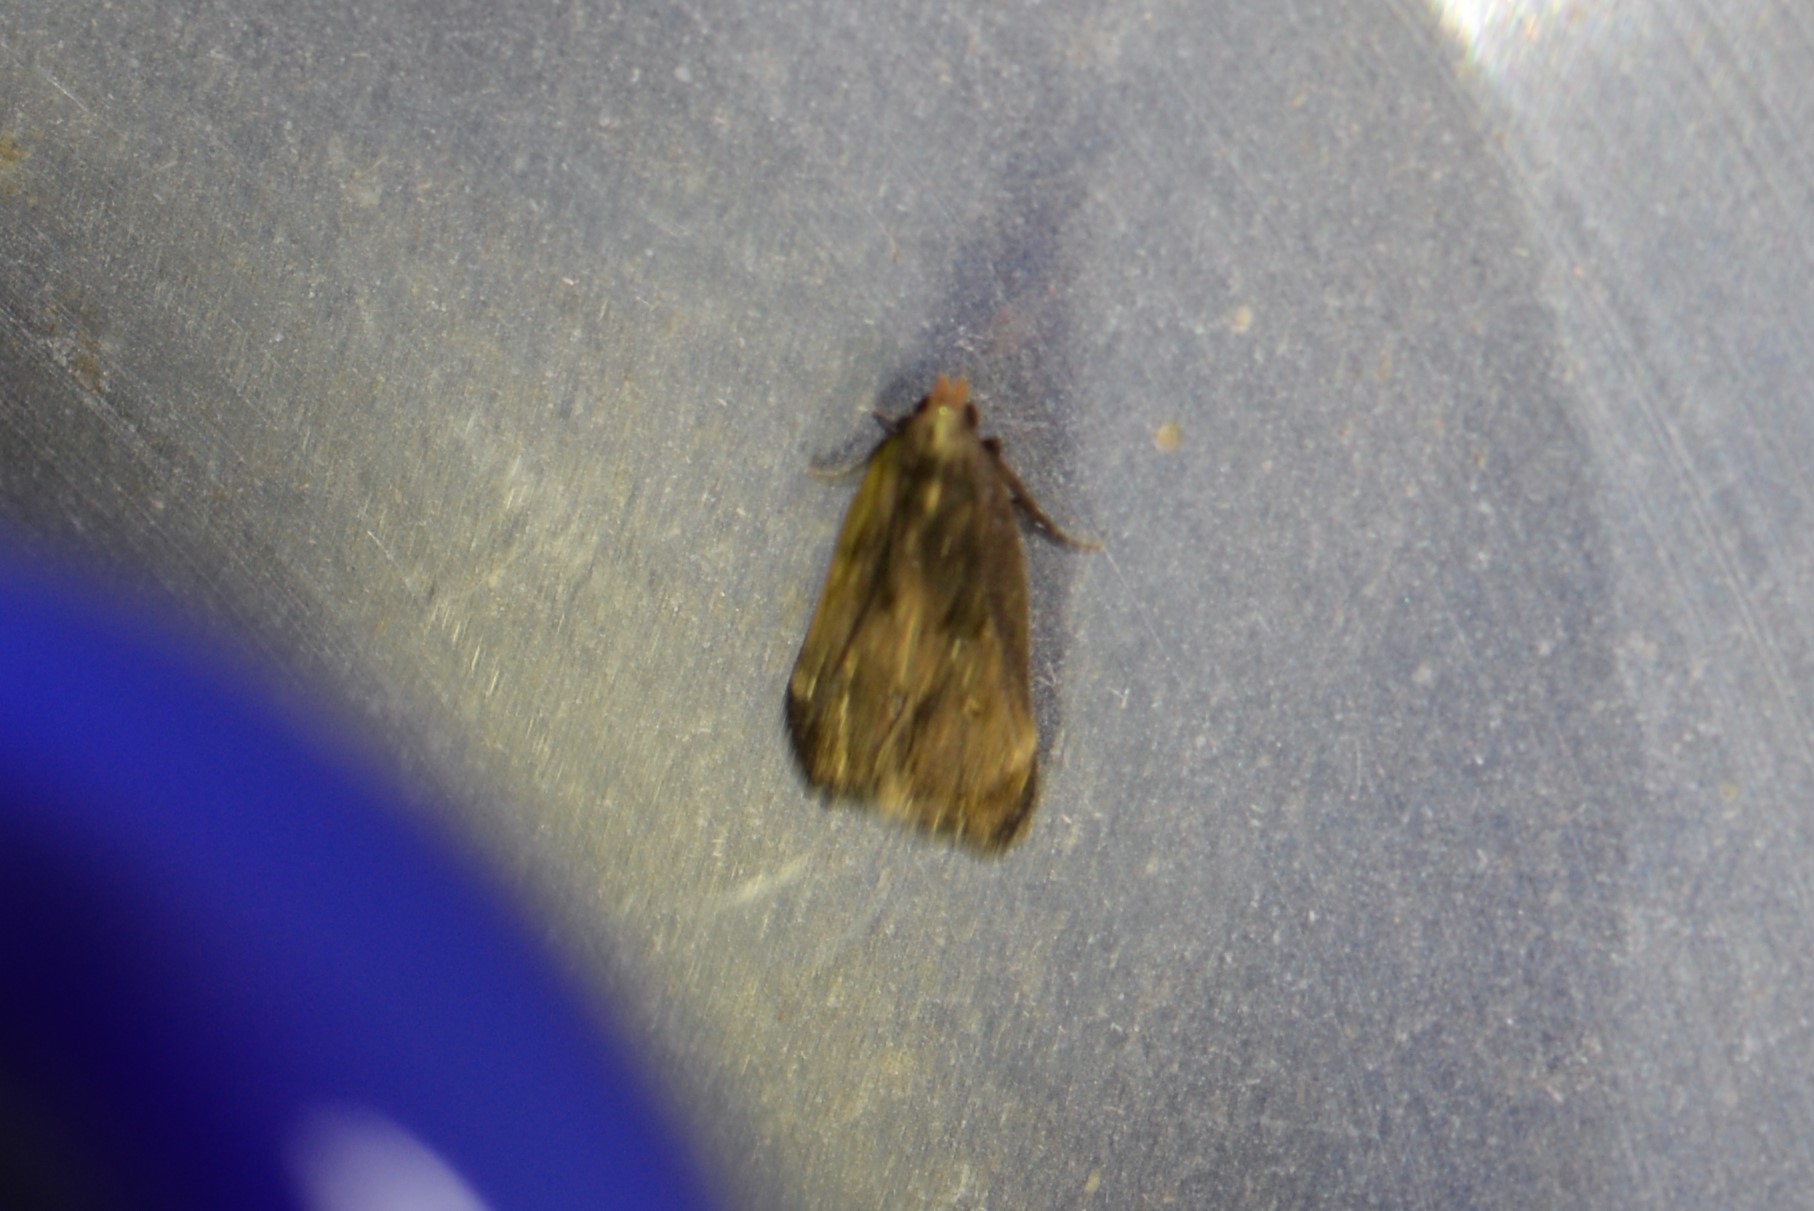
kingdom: Animalia
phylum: Arthropoda
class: Insecta
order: Lepidoptera
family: Gelechiidae
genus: Dichomeris
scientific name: Dichomeris juncidella
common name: Orange-dotted dichomeris moth
